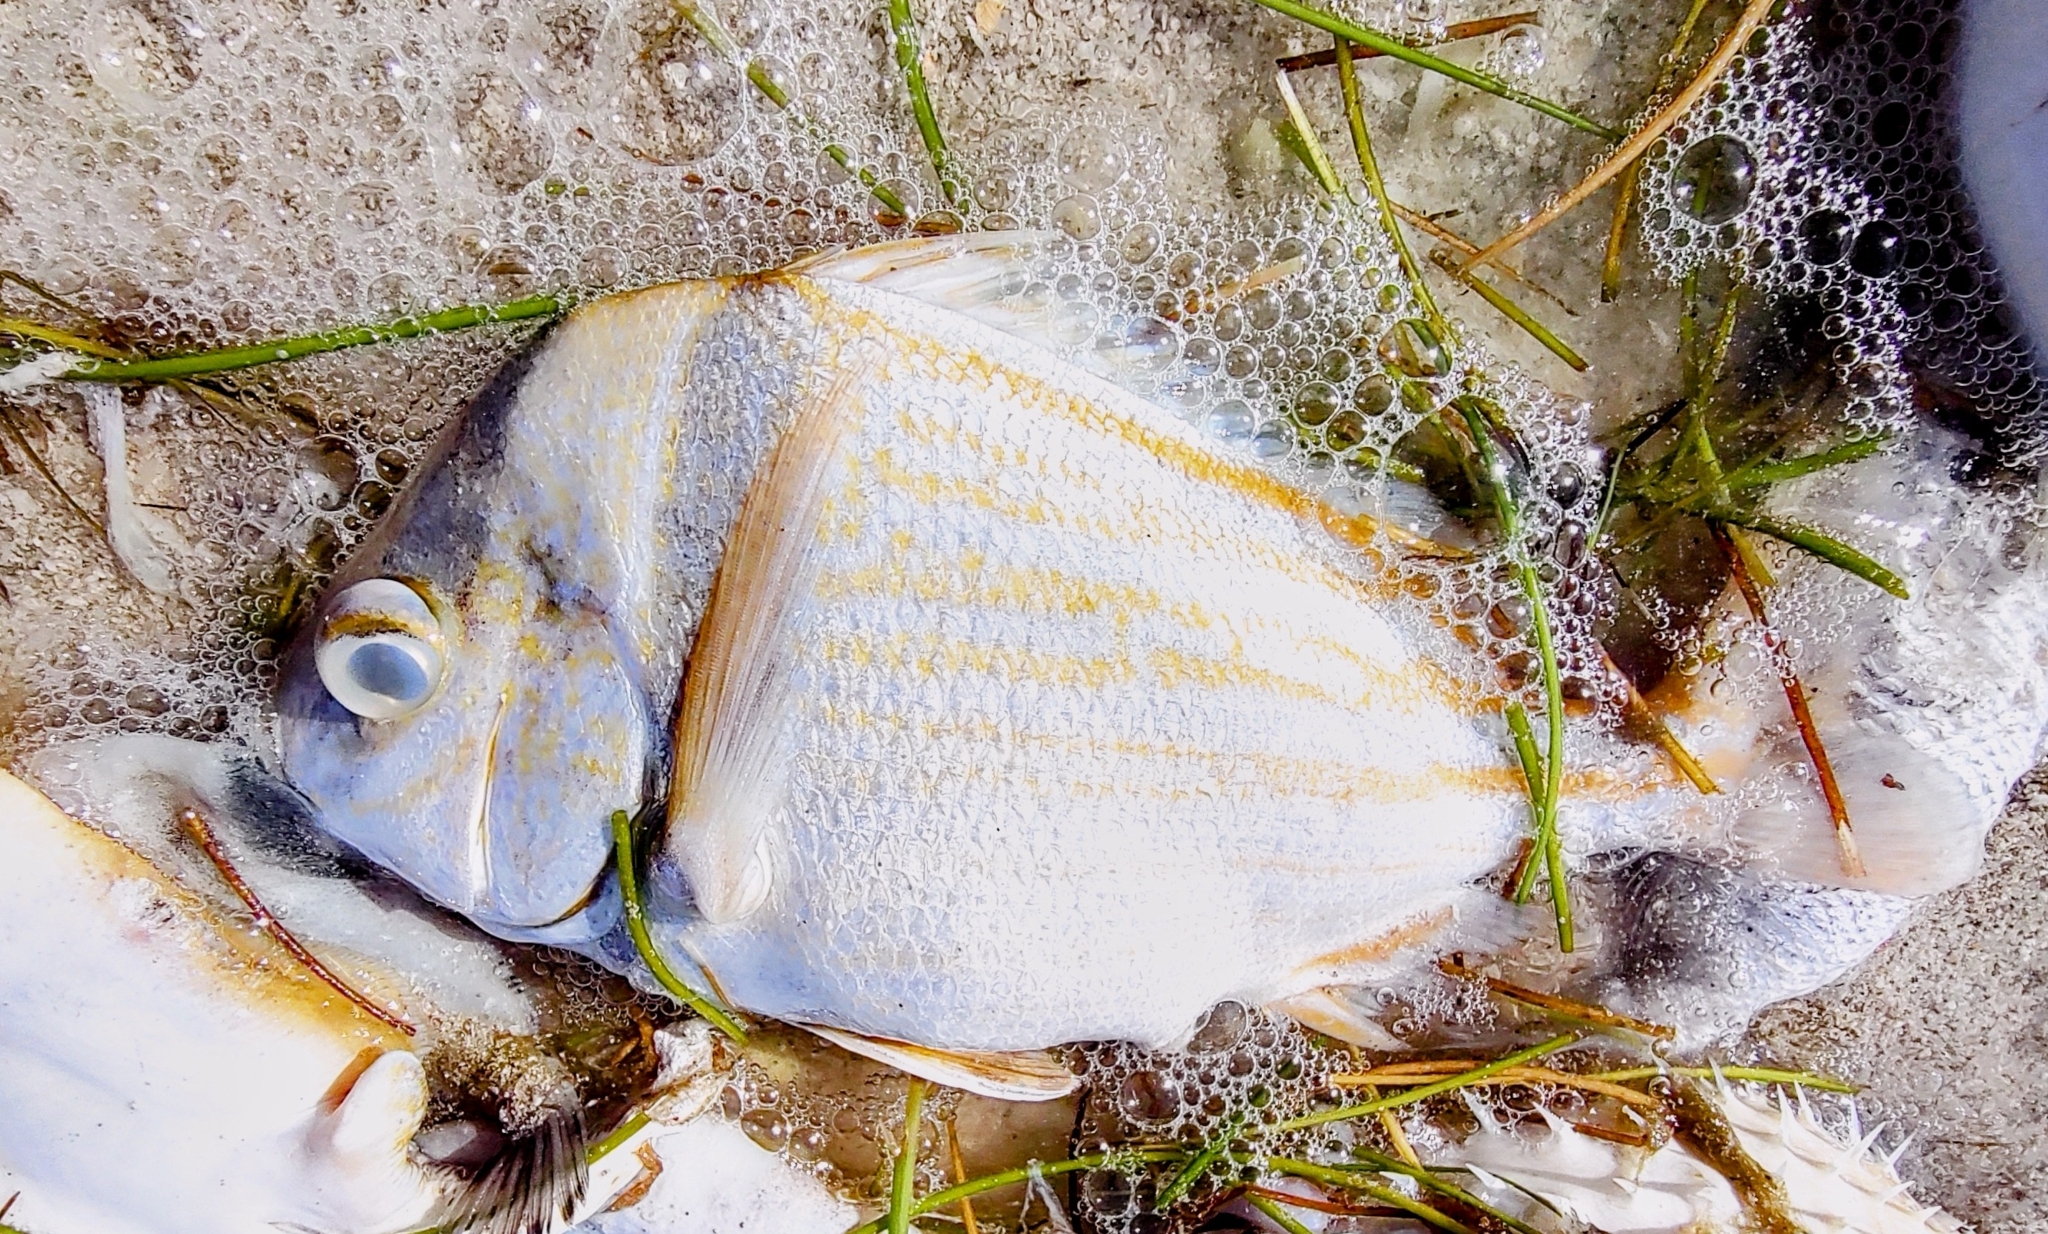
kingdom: Animalia
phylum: Chordata
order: Perciformes
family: Haemulidae
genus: Anisotremus
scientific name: Anisotremus virginicus
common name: Porkfish
